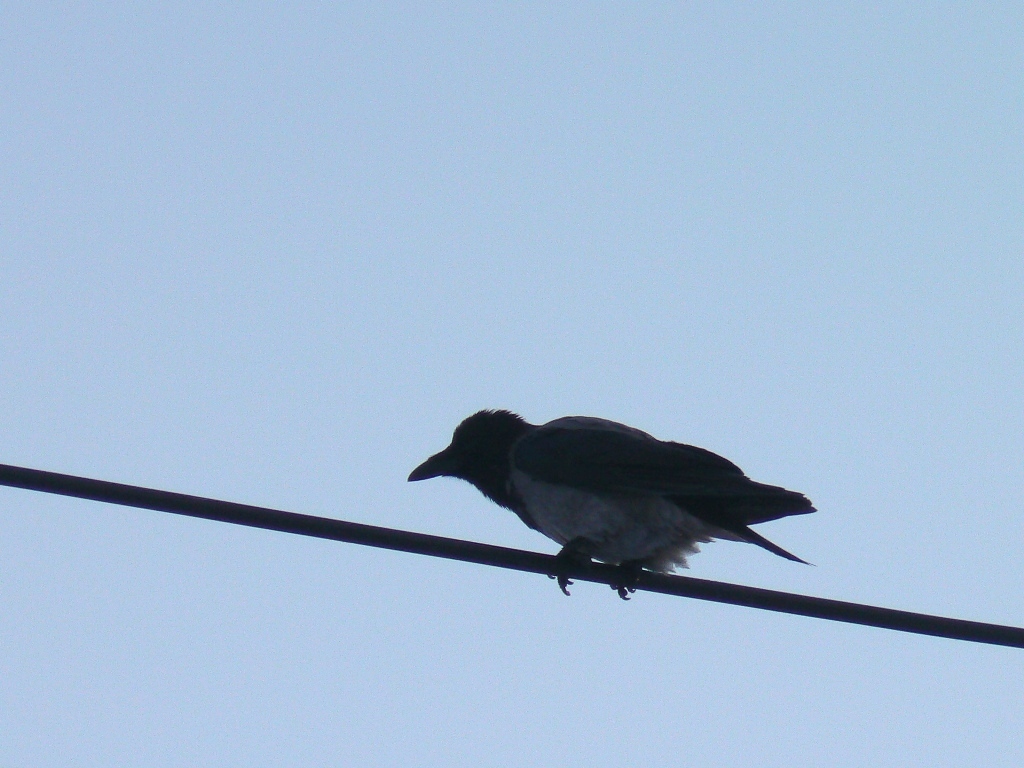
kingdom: Animalia
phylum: Chordata
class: Aves
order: Passeriformes
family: Corvidae
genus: Corvus
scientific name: Corvus cornix
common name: Hooded crow
